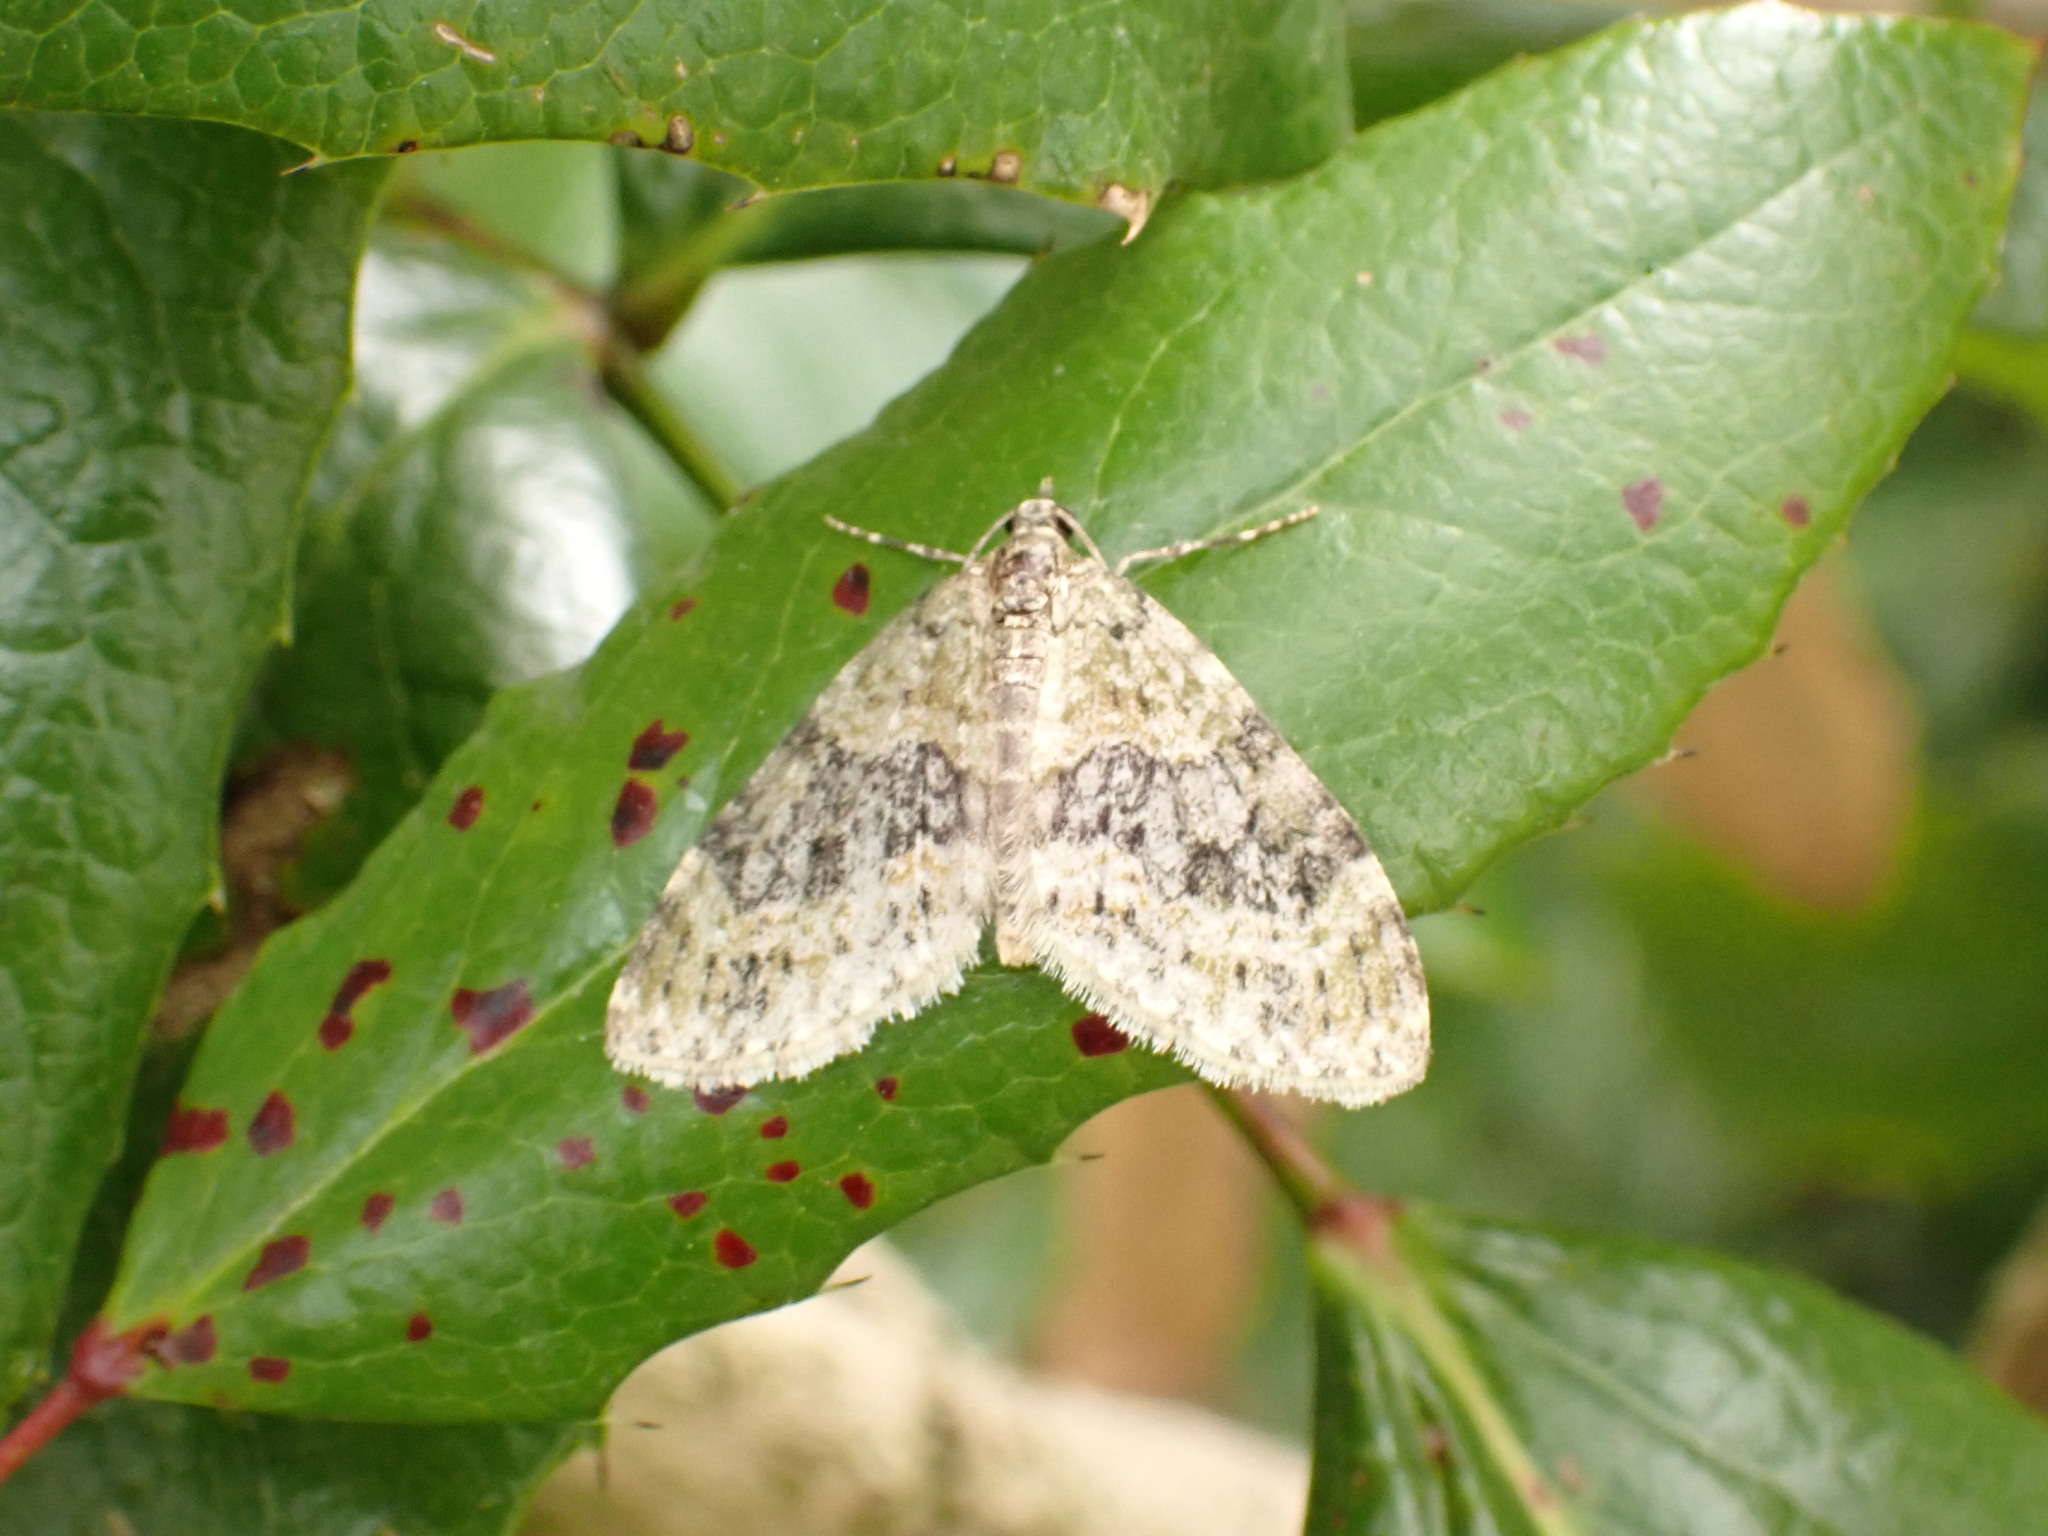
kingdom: Animalia
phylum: Arthropoda
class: Insecta
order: Lepidoptera
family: Geometridae
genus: Acasis
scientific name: Acasis viretata
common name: Yellow-barred brindle
